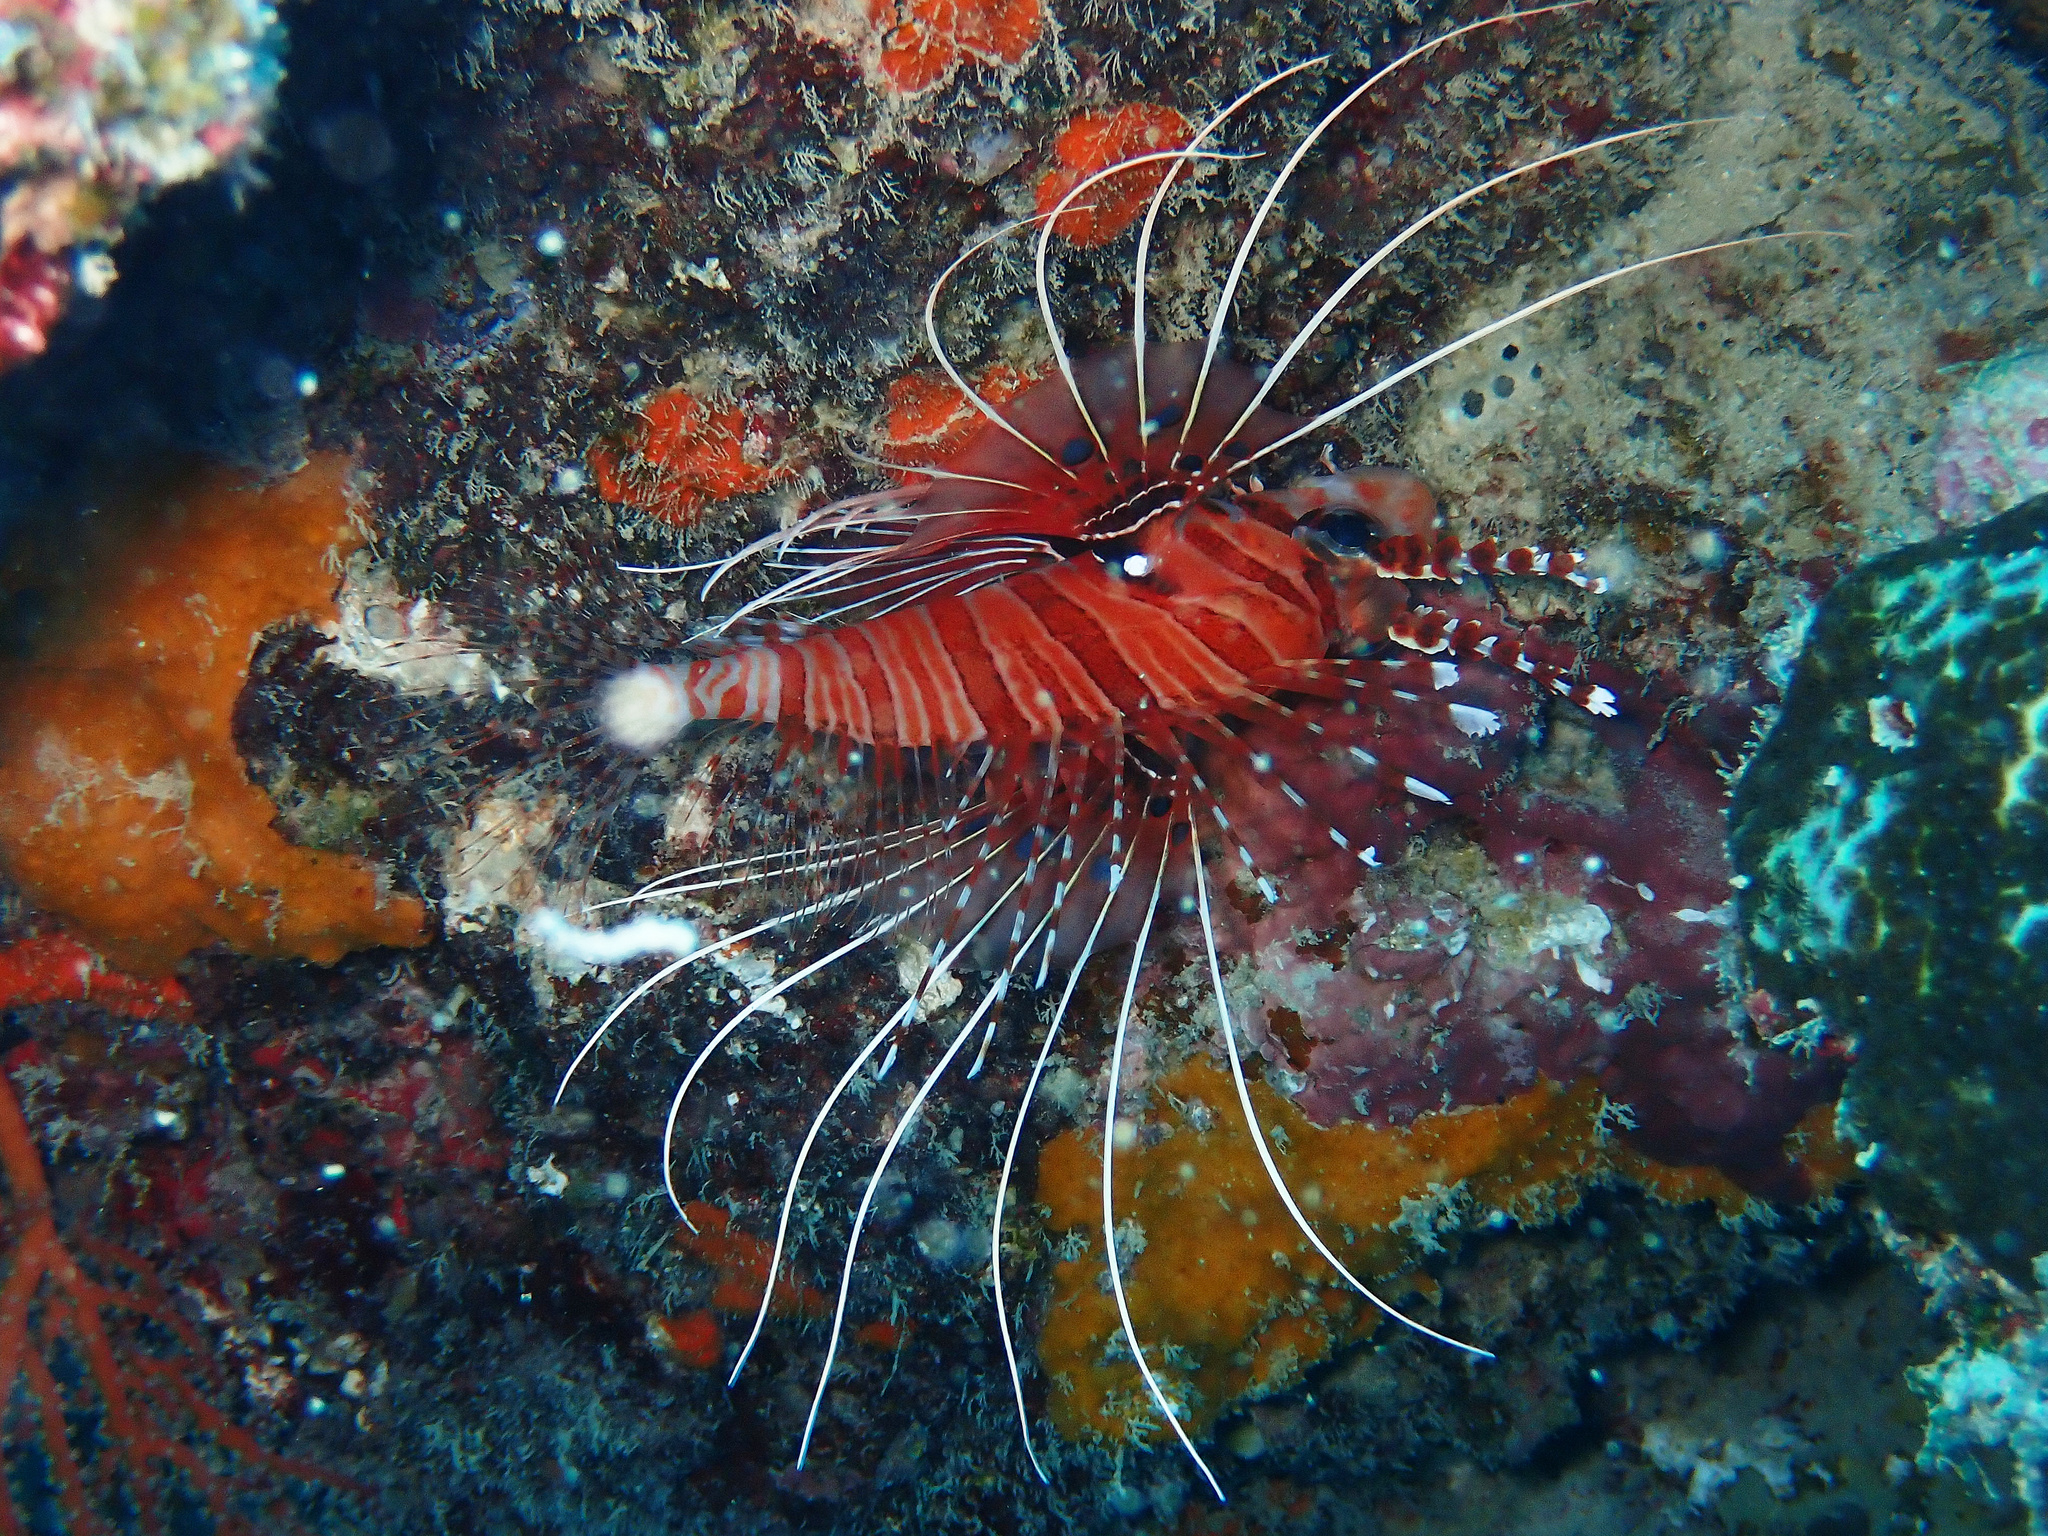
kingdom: Animalia
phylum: Chordata
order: Scorpaeniformes
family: Scorpaenidae
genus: Pterois
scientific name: Pterois antennata
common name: Spotfin lionfish
